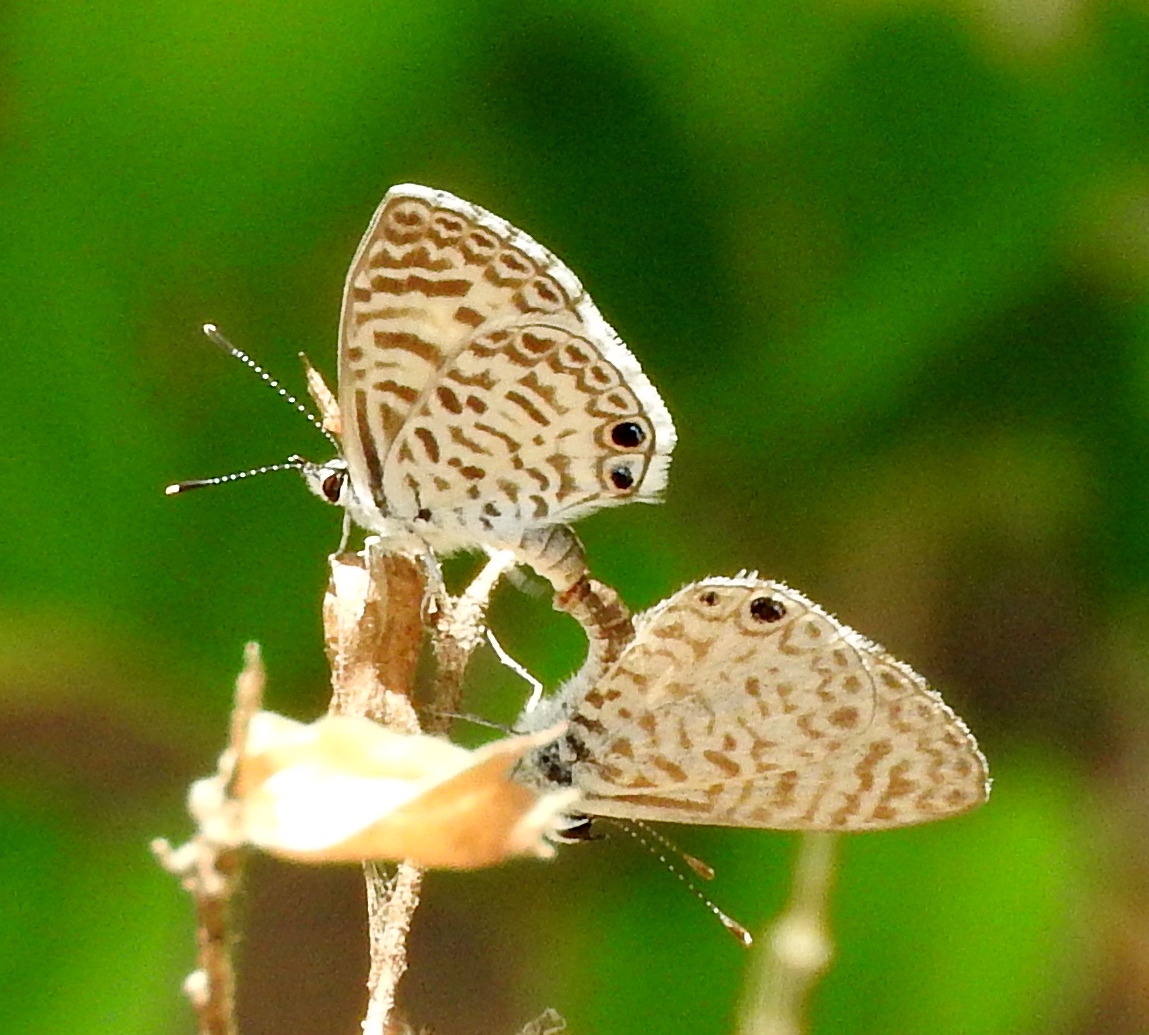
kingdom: Animalia
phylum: Arthropoda
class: Insecta
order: Lepidoptera
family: Lycaenidae
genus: Leptotes
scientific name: Leptotes theonus
